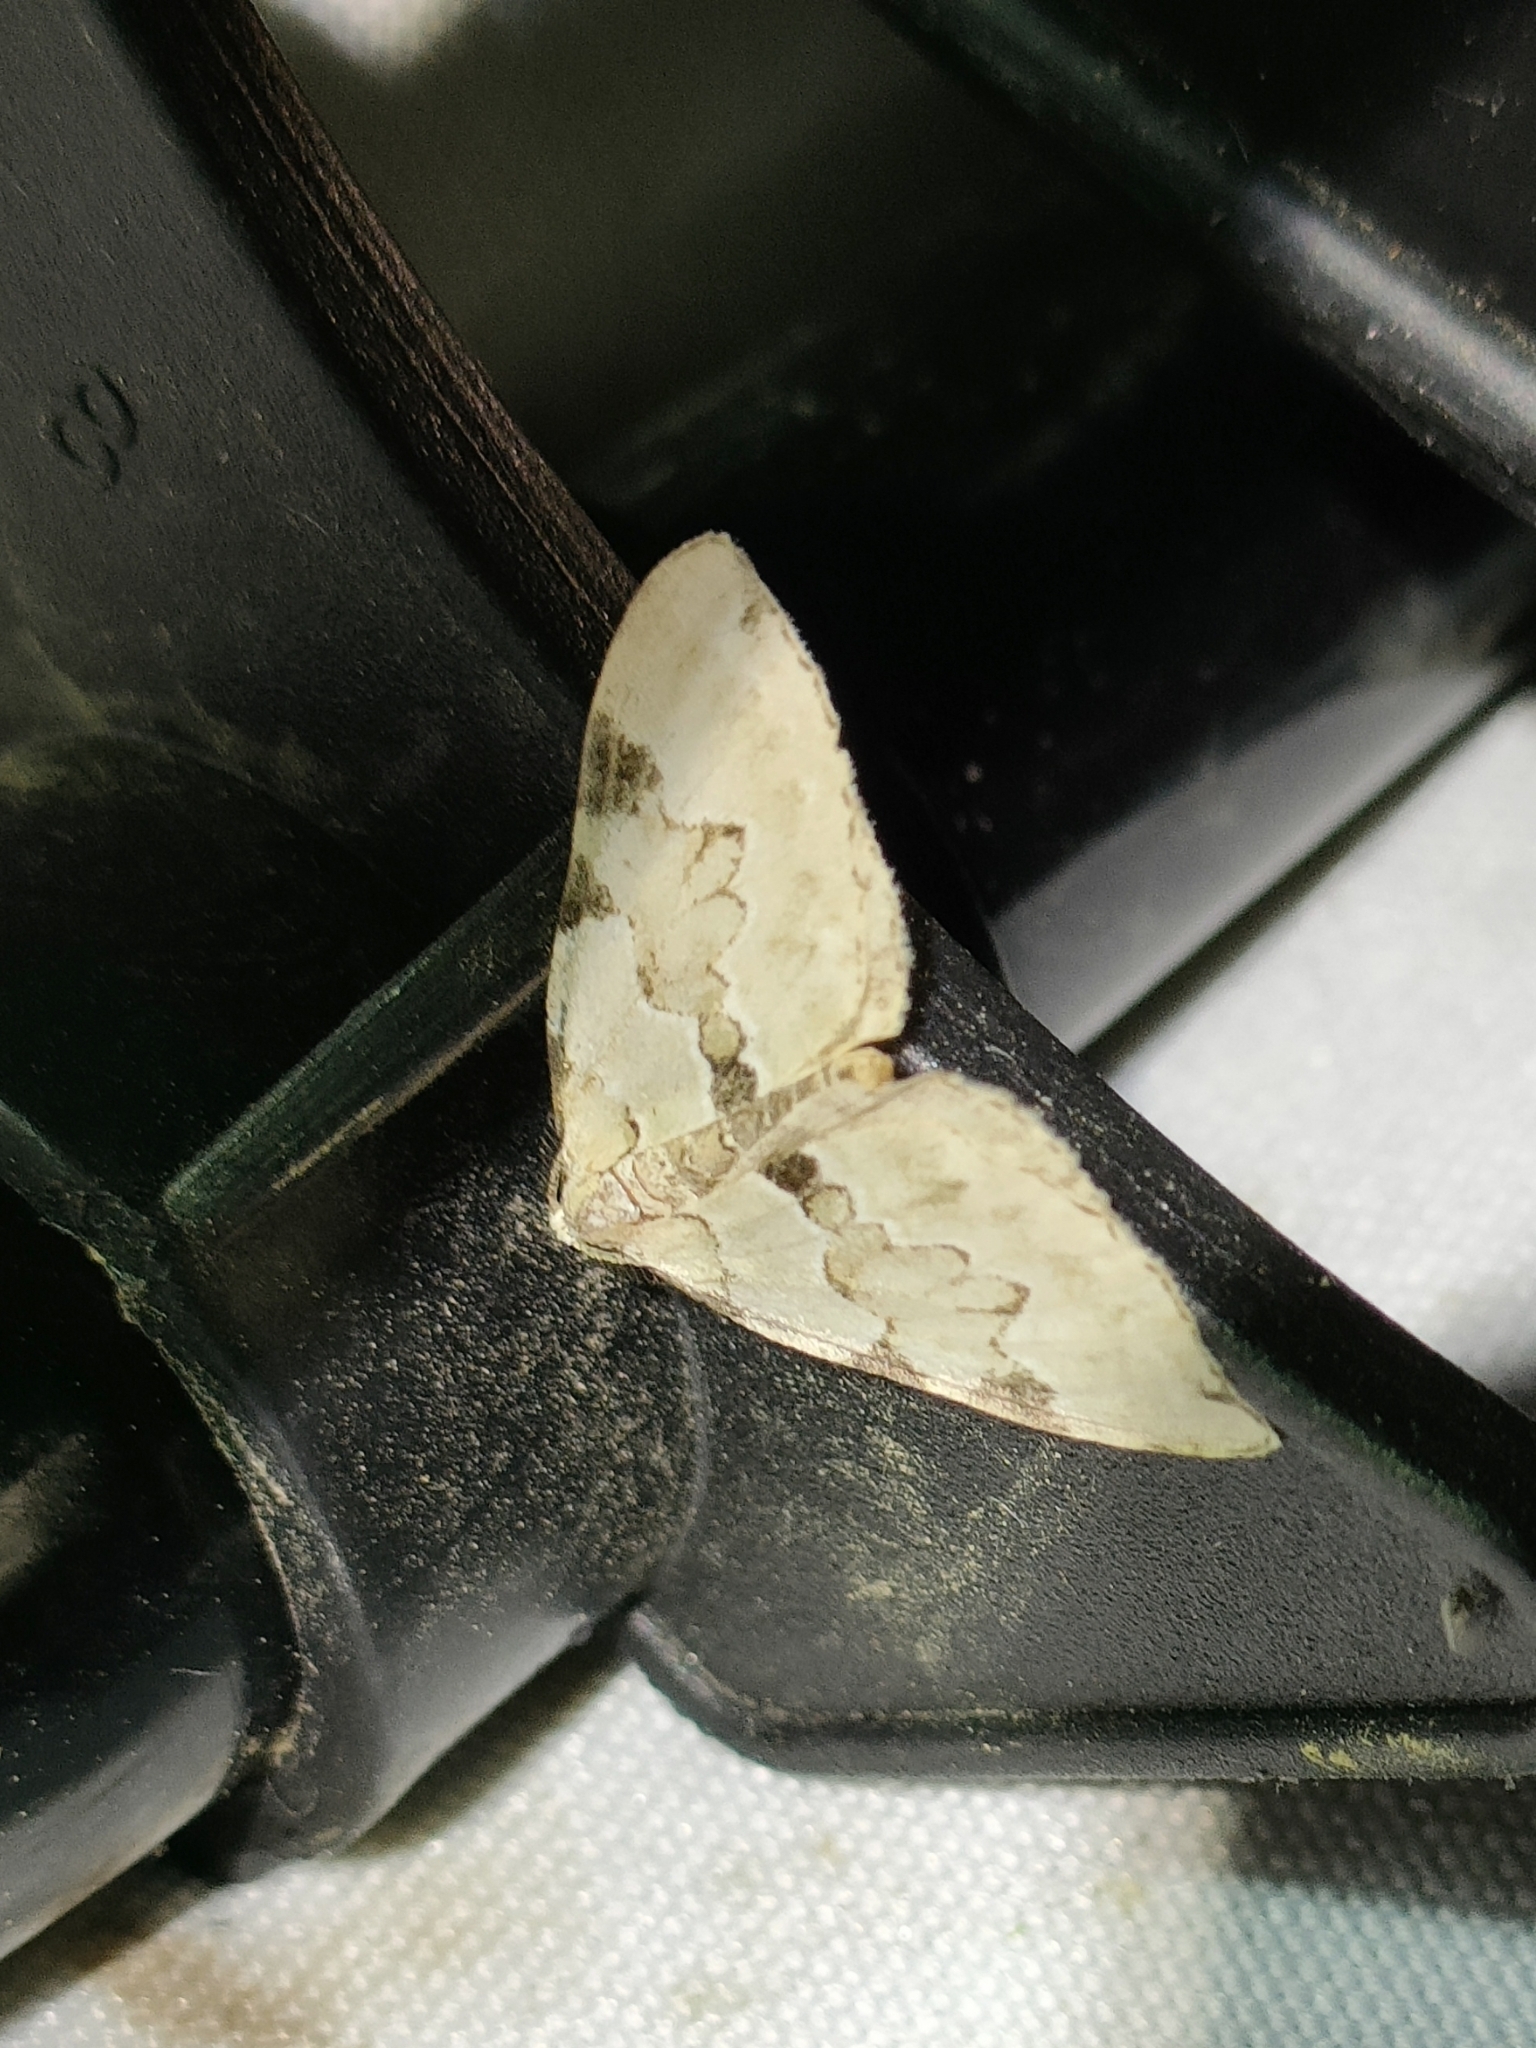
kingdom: Animalia
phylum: Arthropoda
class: Insecta
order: Lepidoptera
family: Geometridae
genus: Colostygia
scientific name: Colostygia pectinataria
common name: Green carpet
